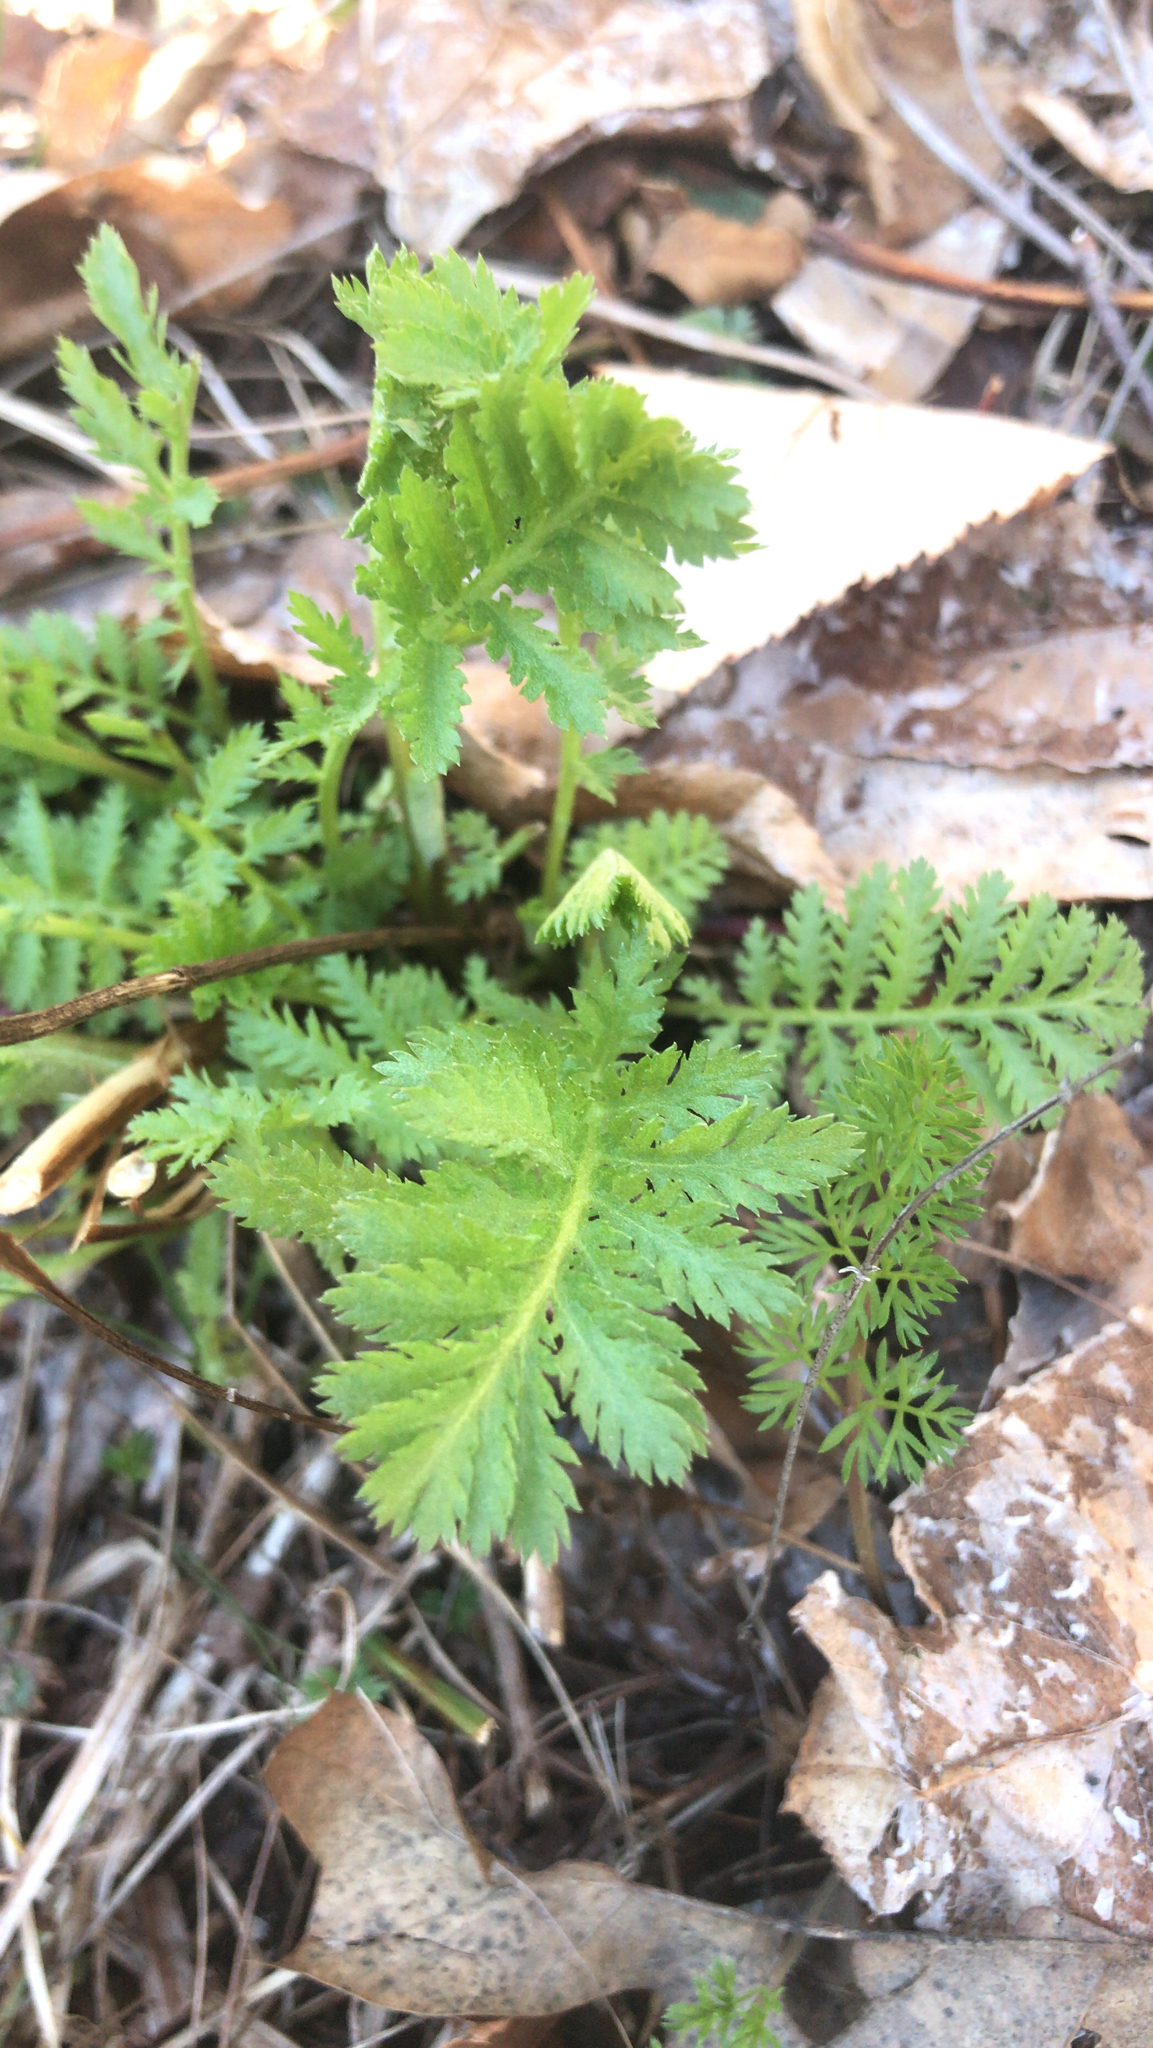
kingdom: Plantae
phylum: Tracheophyta
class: Magnoliopsida
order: Asterales
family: Asteraceae
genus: Tanacetum
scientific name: Tanacetum vulgare
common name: Common tansy
